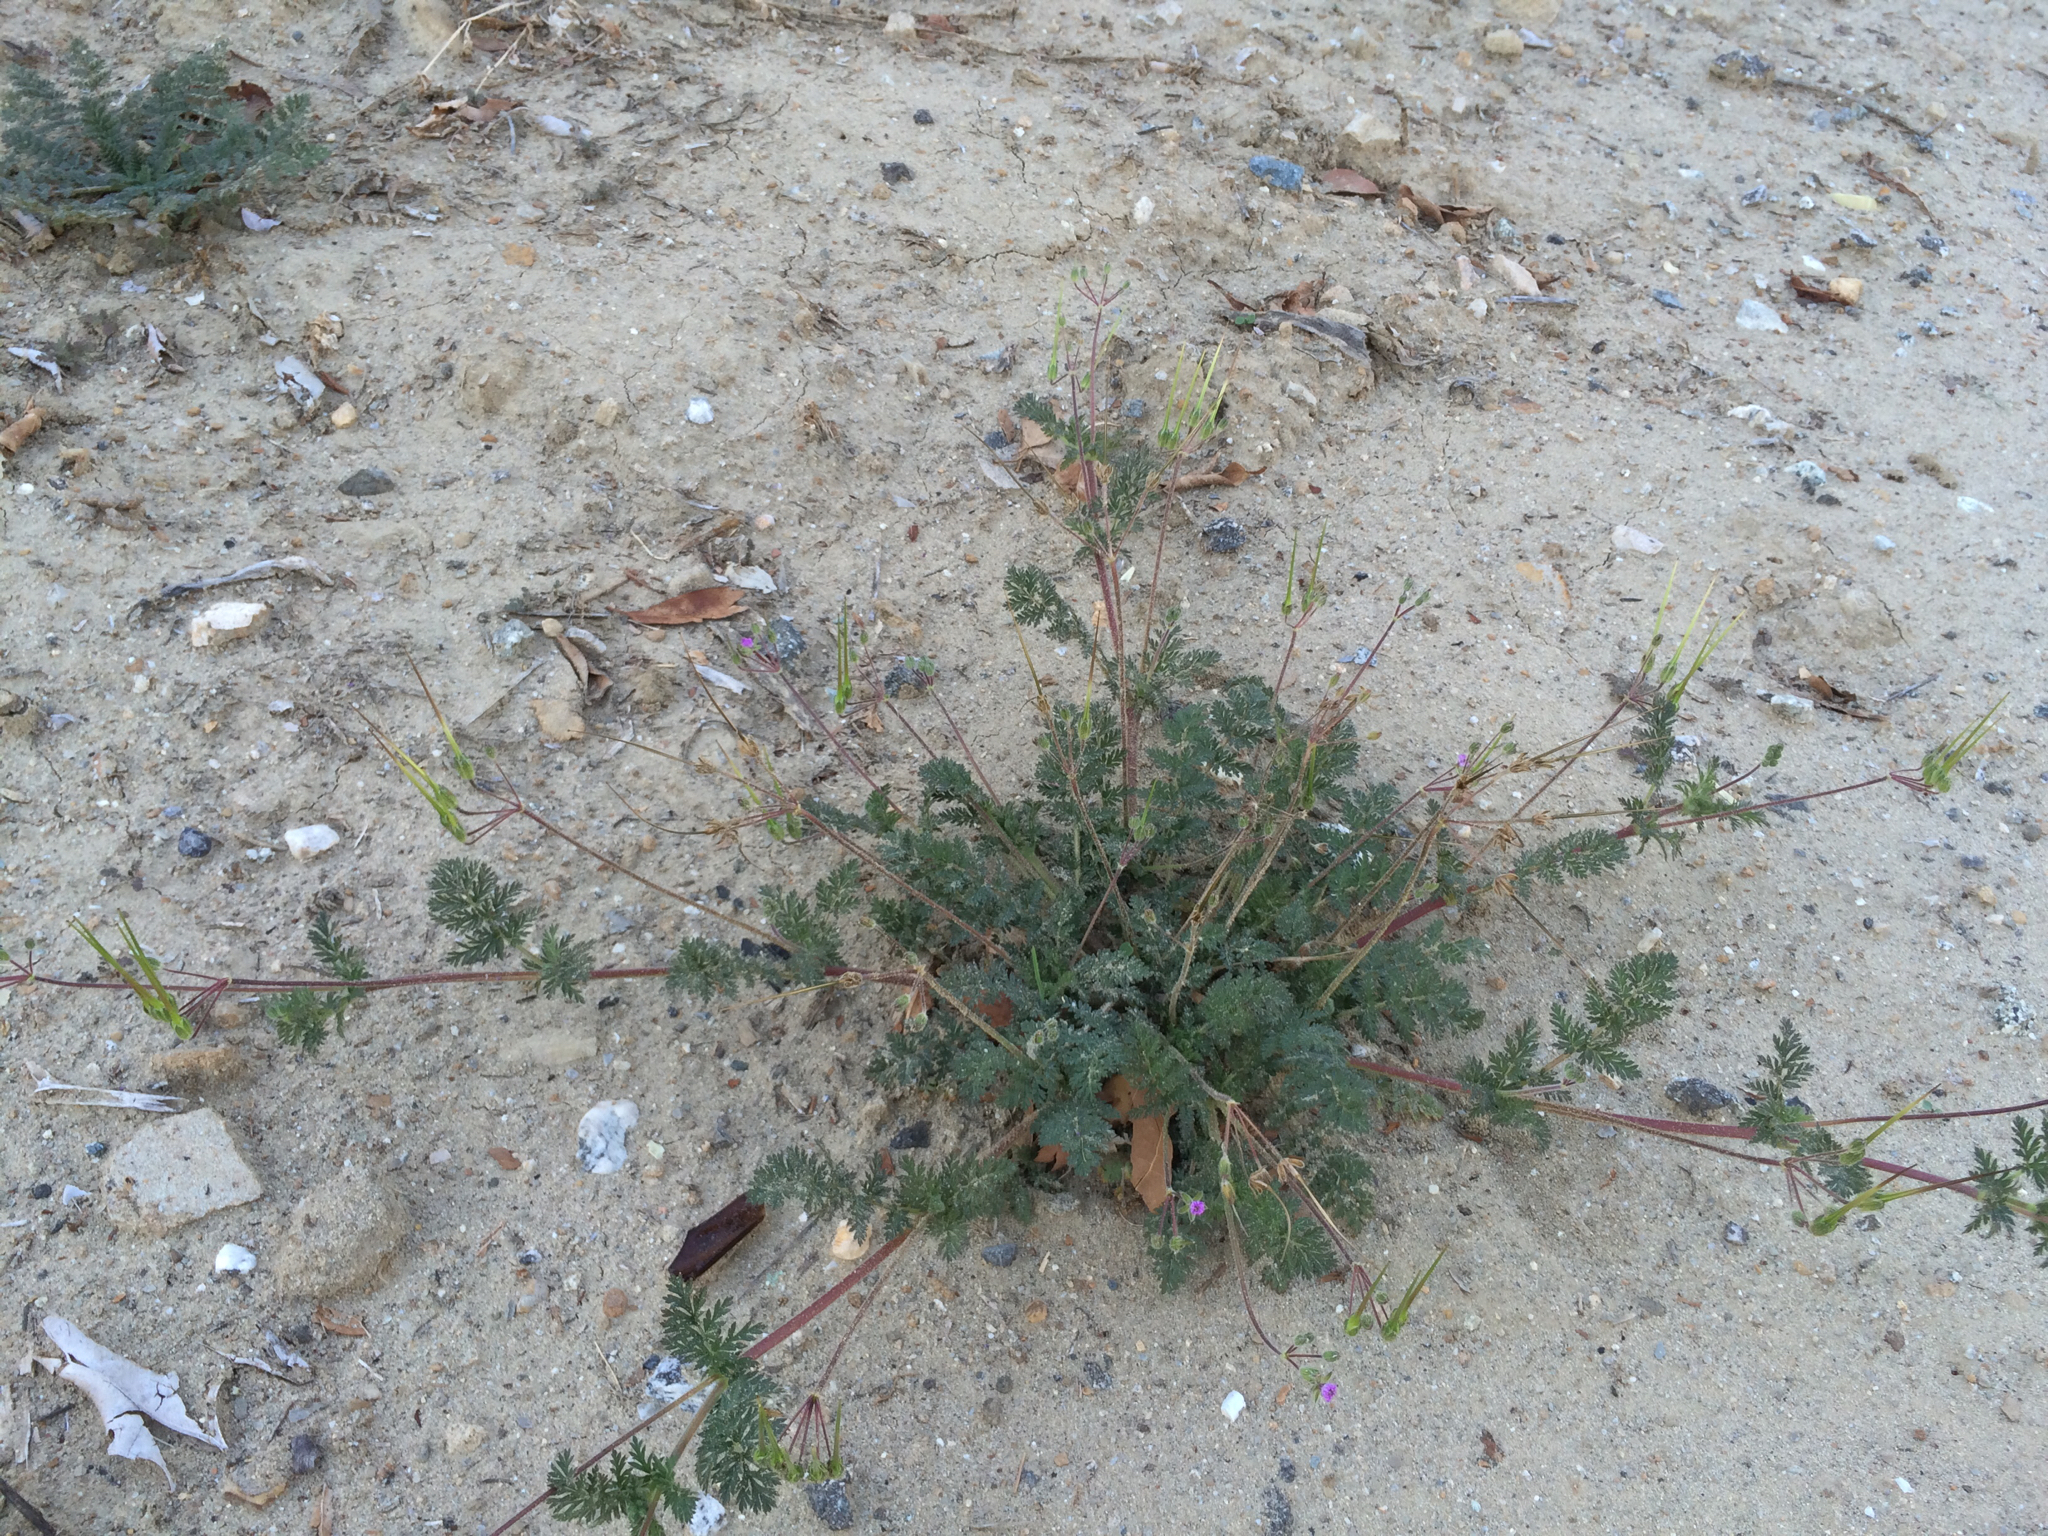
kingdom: Plantae
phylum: Tracheophyta
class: Magnoliopsida
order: Geraniales
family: Geraniaceae
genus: Erodium
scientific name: Erodium cicutarium
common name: Common stork's-bill
